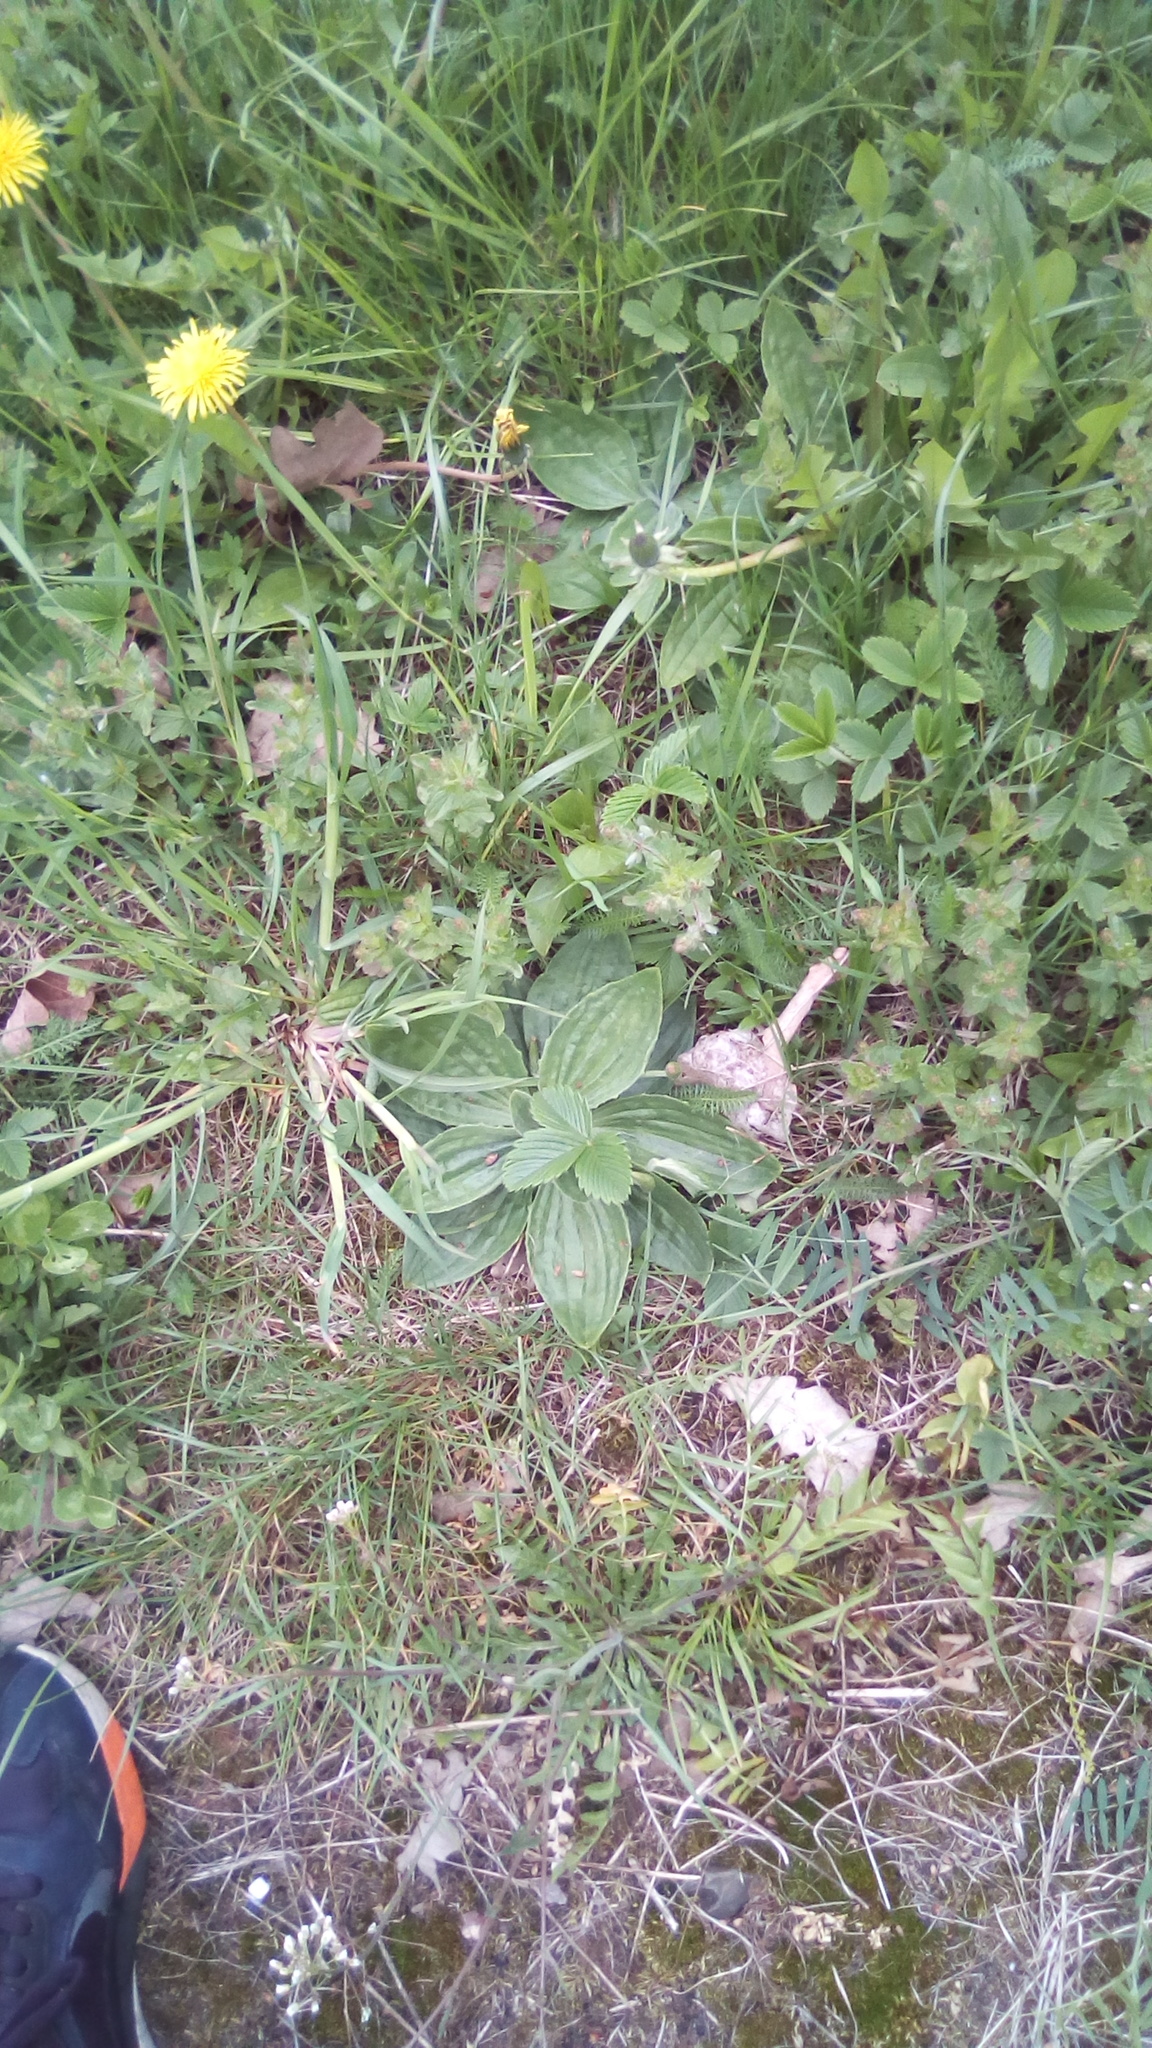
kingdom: Plantae
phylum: Tracheophyta
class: Magnoliopsida
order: Lamiales
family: Plantaginaceae
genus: Plantago
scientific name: Plantago media
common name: Hoary plantain
